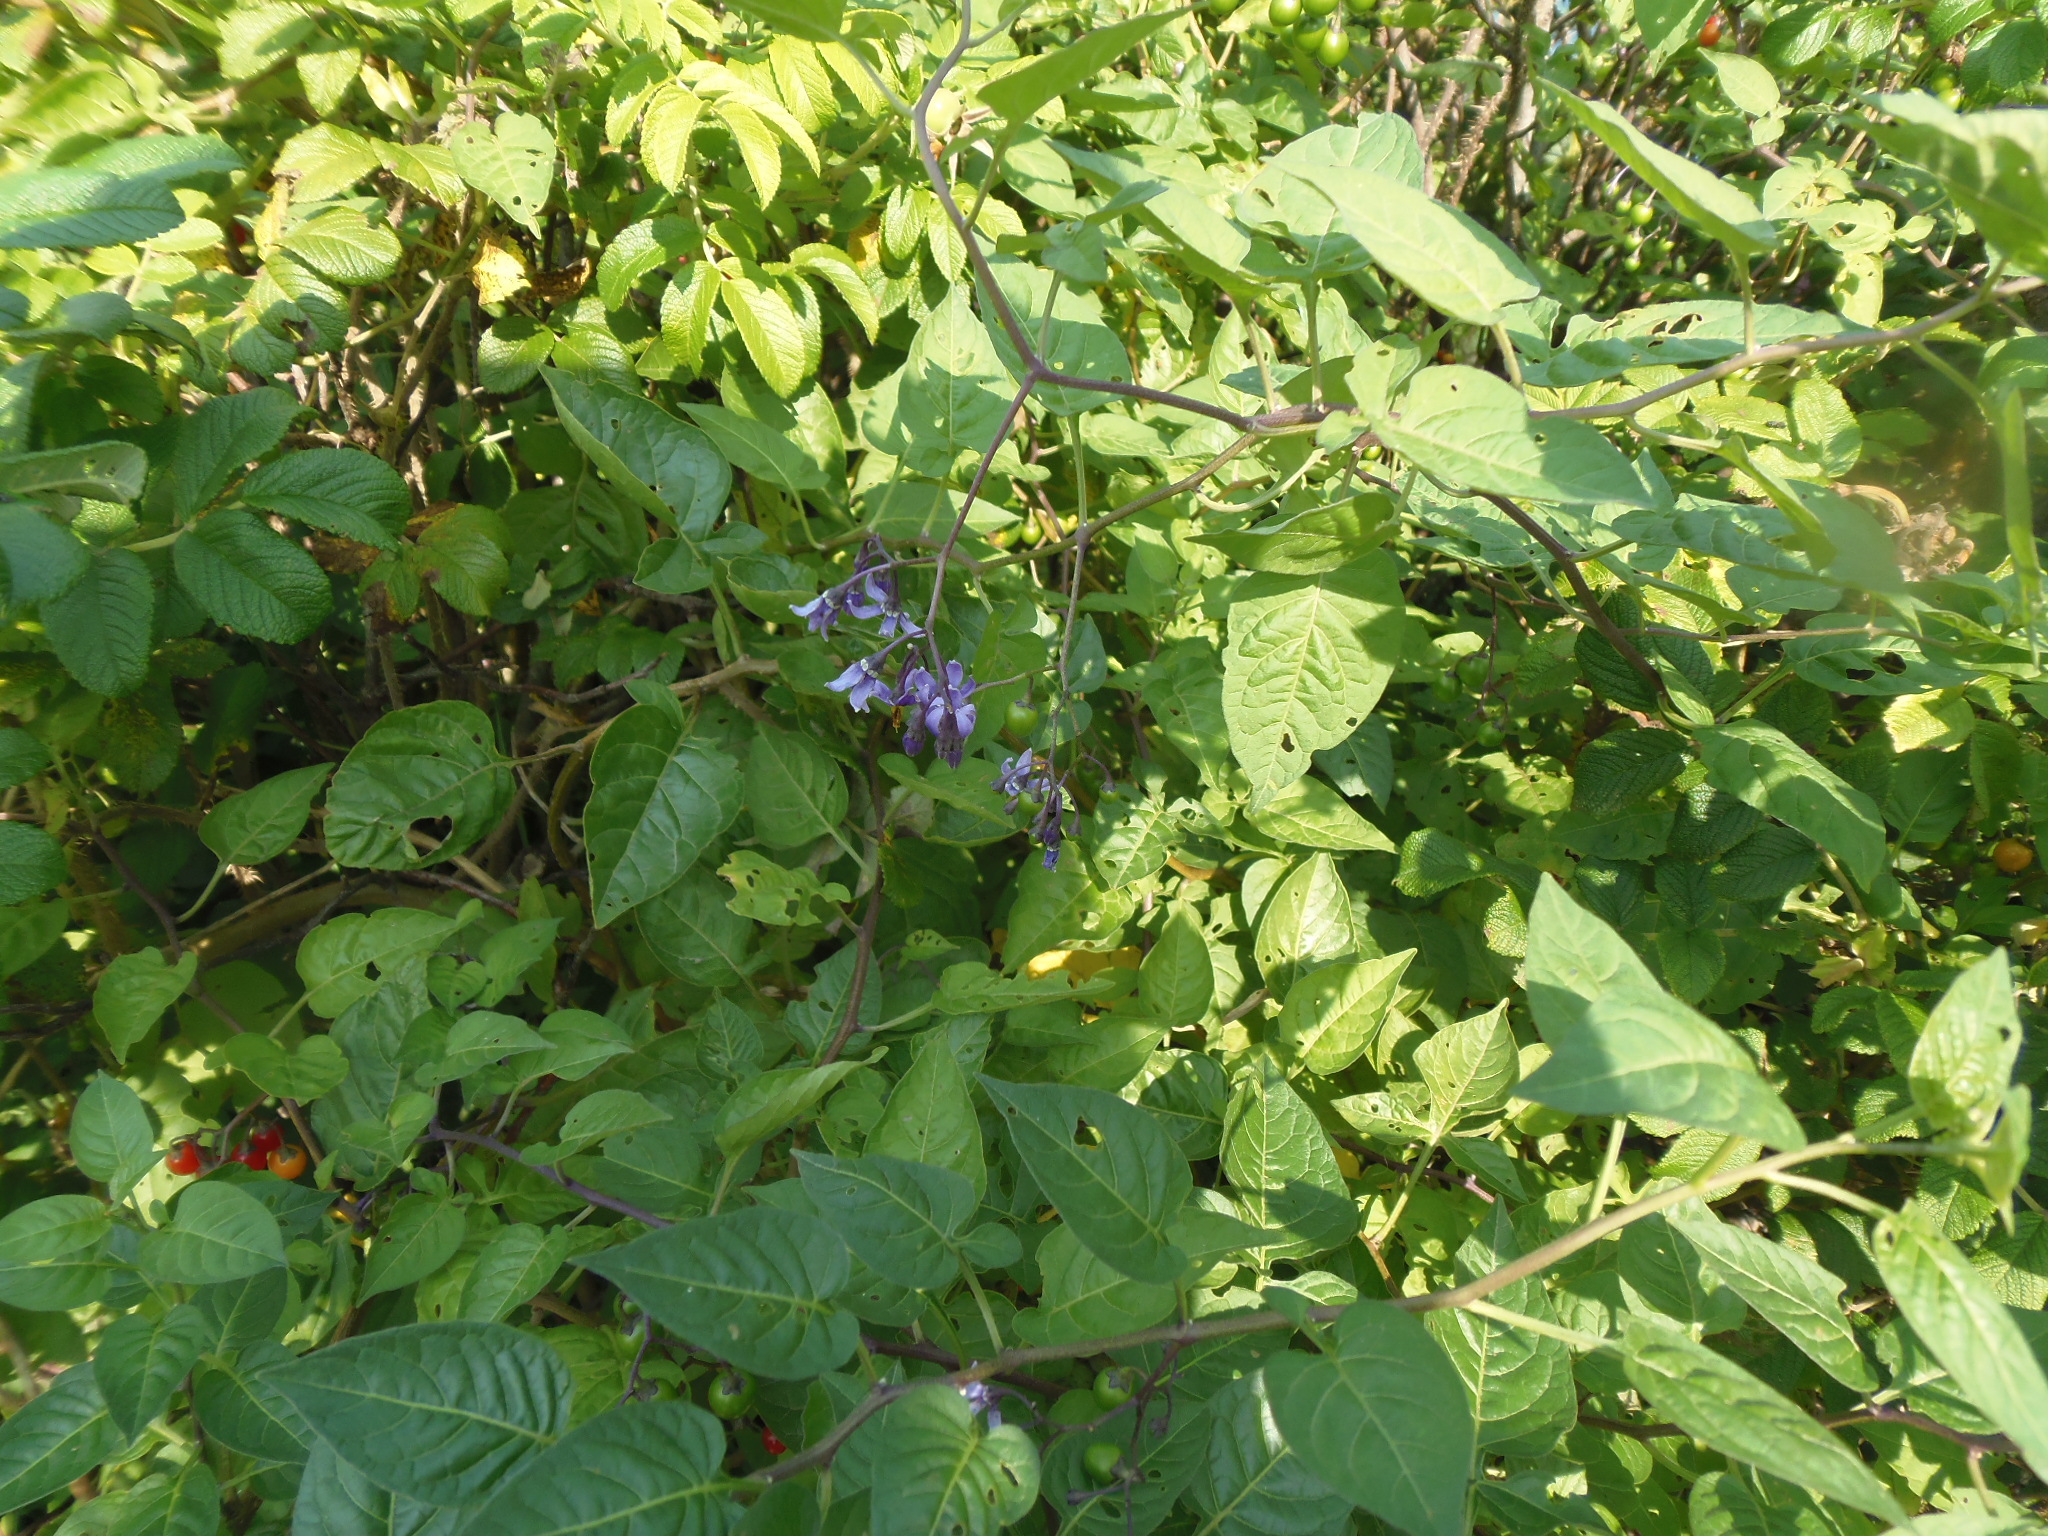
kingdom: Plantae
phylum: Tracheophyta
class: Magnoliopsida
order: Solanales
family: Solanaceae
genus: Solanum
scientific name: Solanum dulcamara
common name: Climbing nightshade
